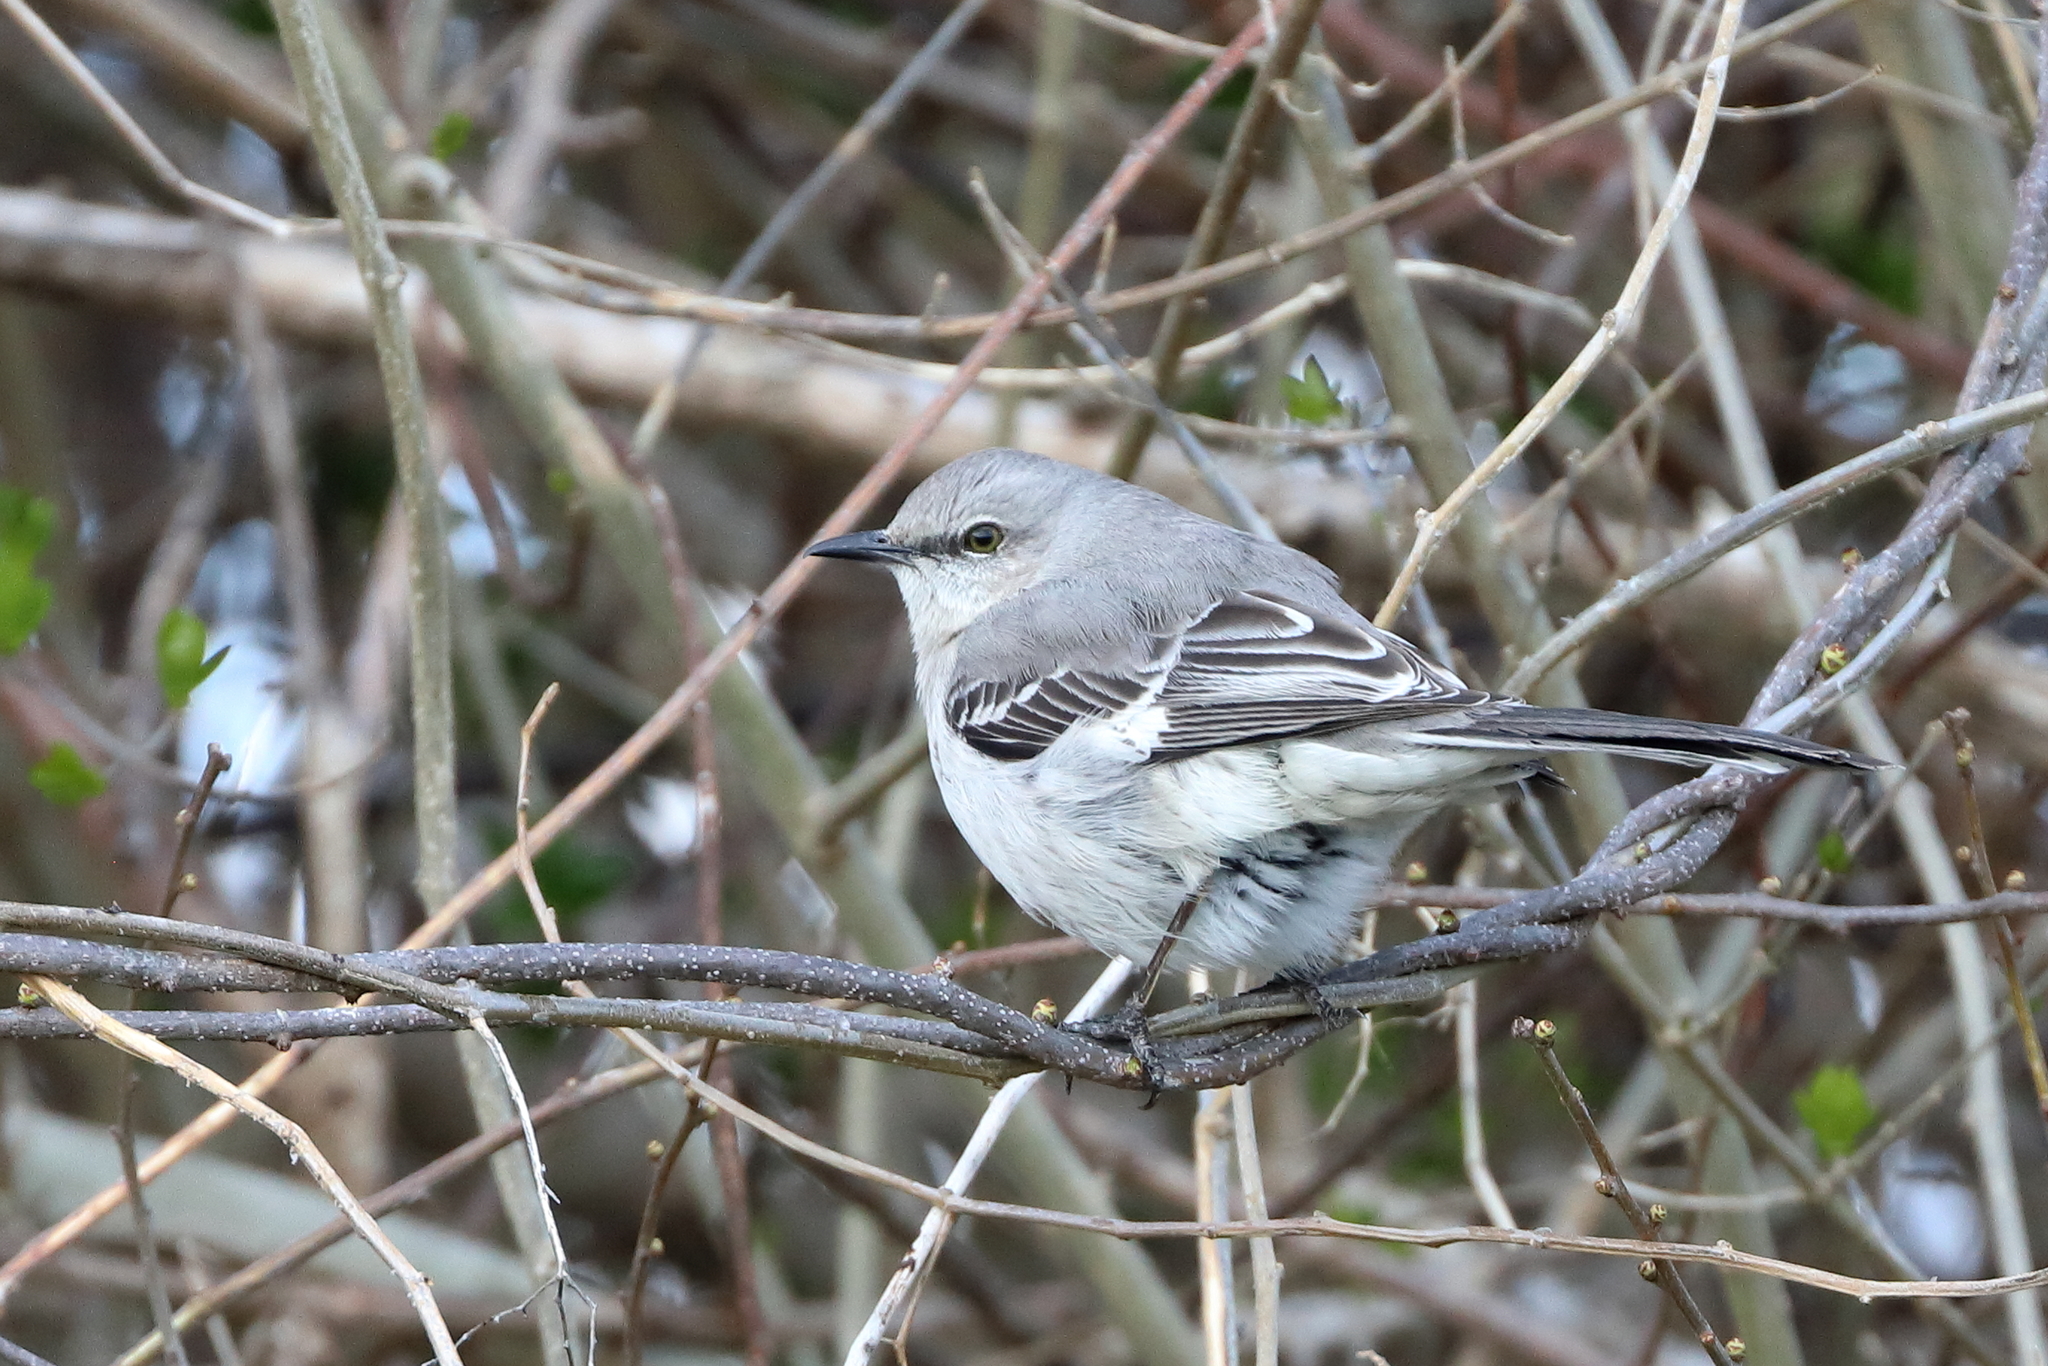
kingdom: Animalia
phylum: Chordata
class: Aves
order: Passeriformes
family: Mimidae
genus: Mimus
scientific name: Mimus polyglottos
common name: Northern mockingbird
